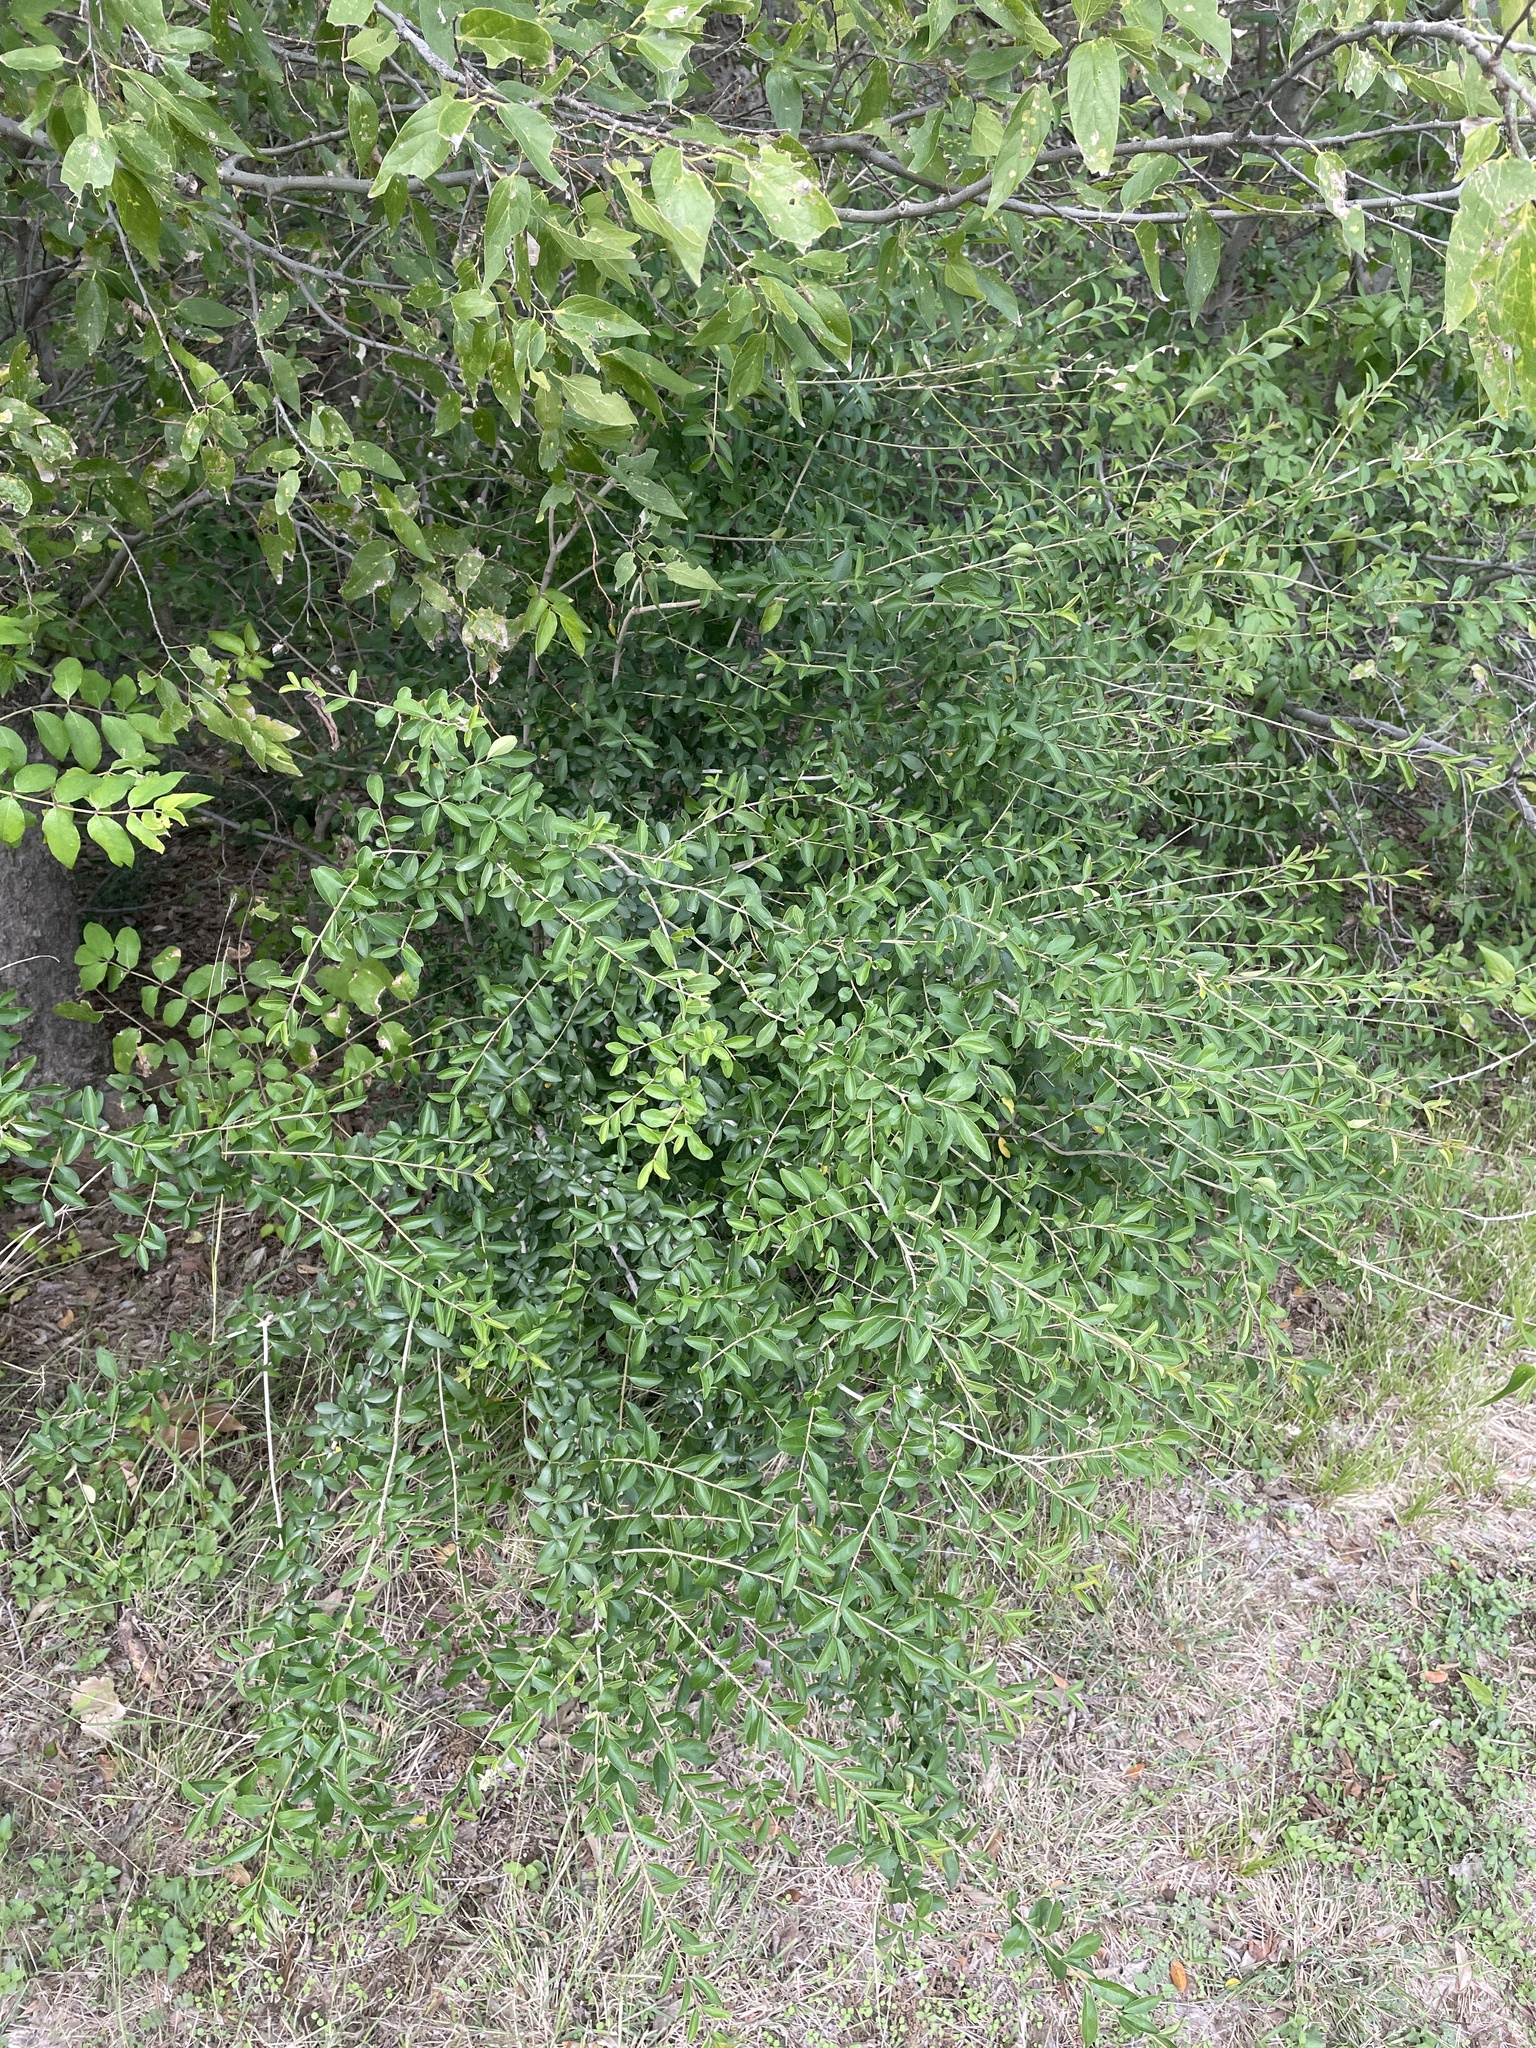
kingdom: Plantae
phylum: Tracheophyta
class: Magnoliopsida
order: Lamiales
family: Oleaceae
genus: Ligustrum
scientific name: Ligustrum quihoui
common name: Waxyleaf privet
